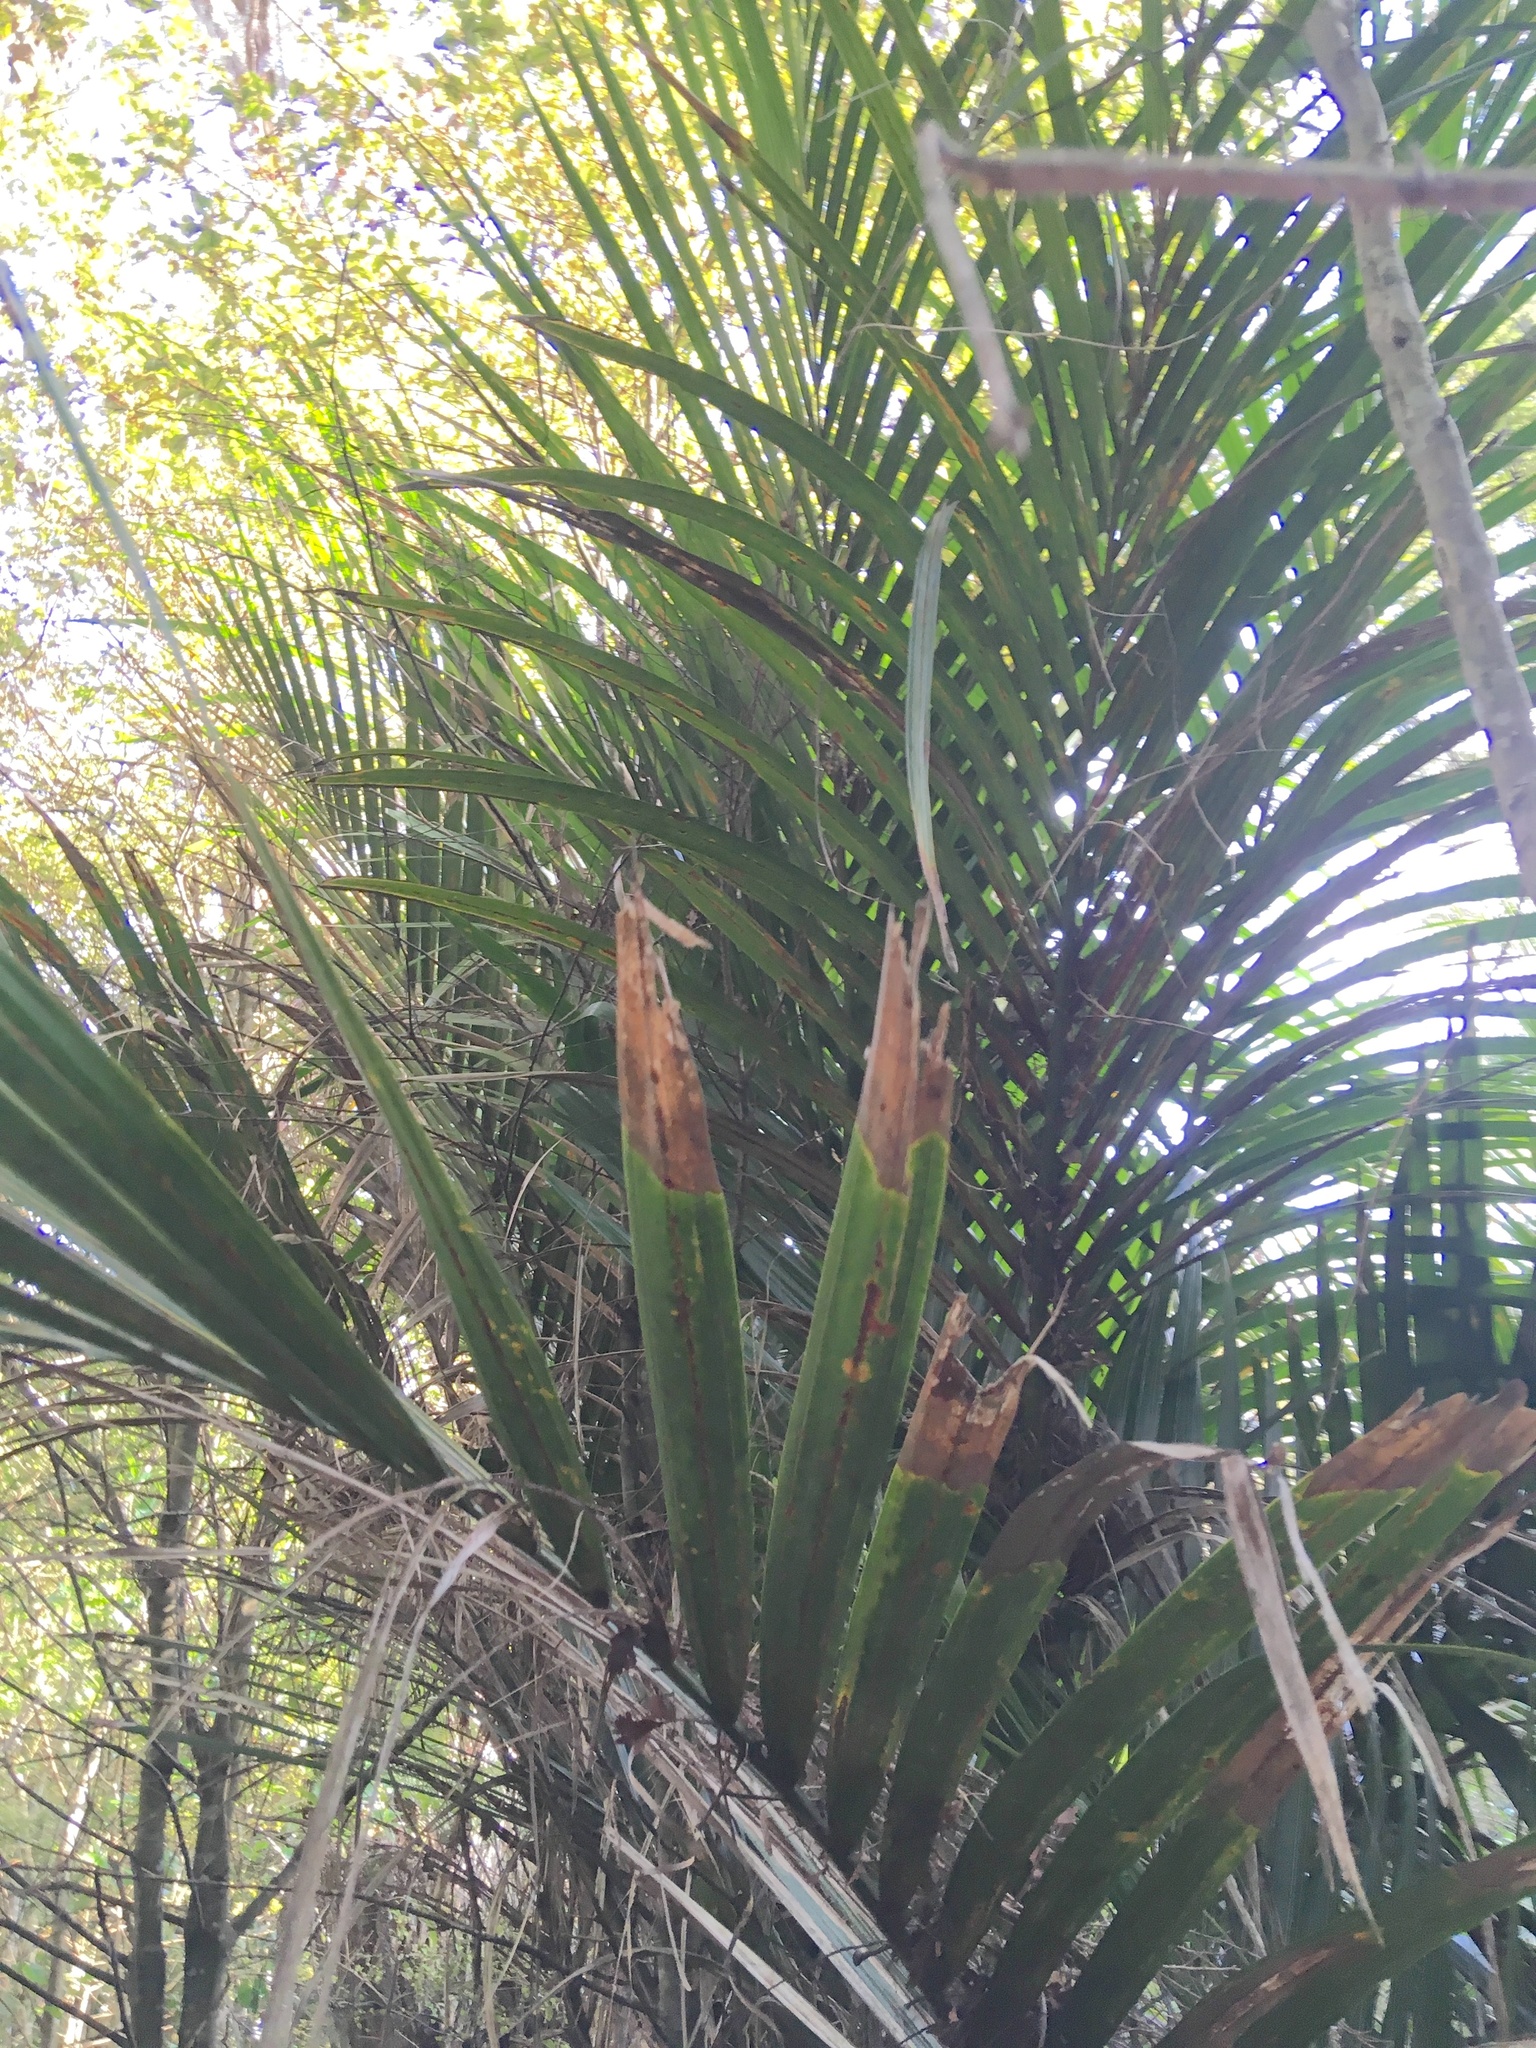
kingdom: Plantae
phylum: Tracheophyta
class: Liliopsida
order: Arecales
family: Arecaceae
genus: Rhopalostylis
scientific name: Rhopalostylis sapida
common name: Feather-duster palm
